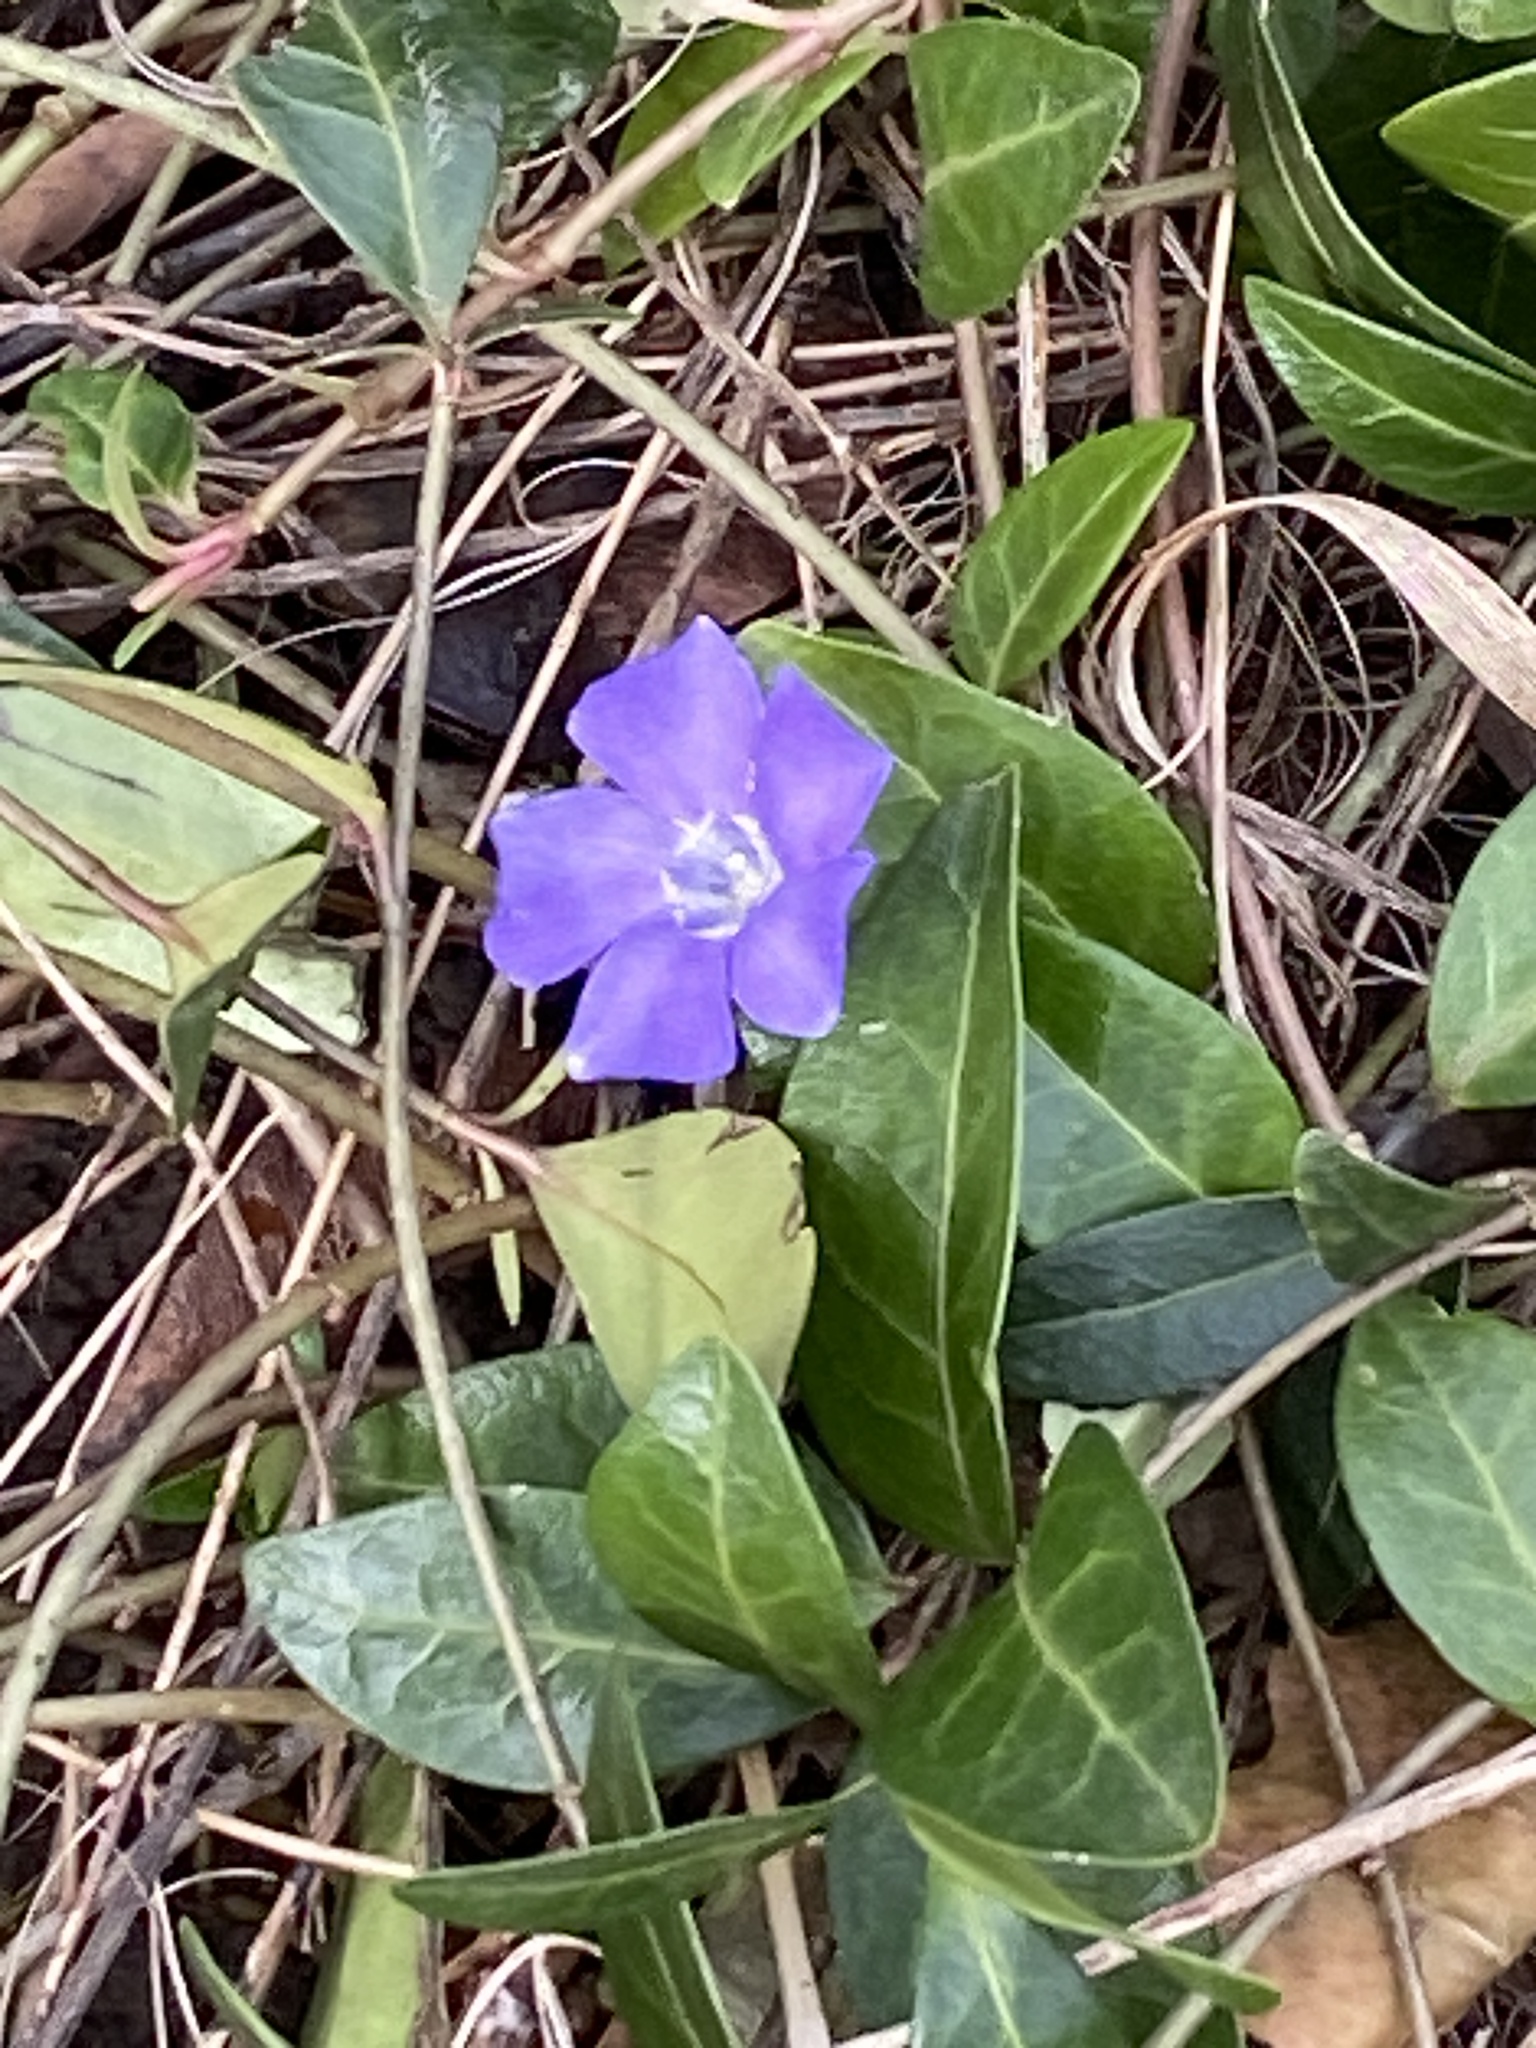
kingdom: Plantae
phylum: Tracheophyta
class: Magnoliopsida
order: Gentianales
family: Apocynaceae
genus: Vinca
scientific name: Vinca minor
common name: Lesser periwinkle
